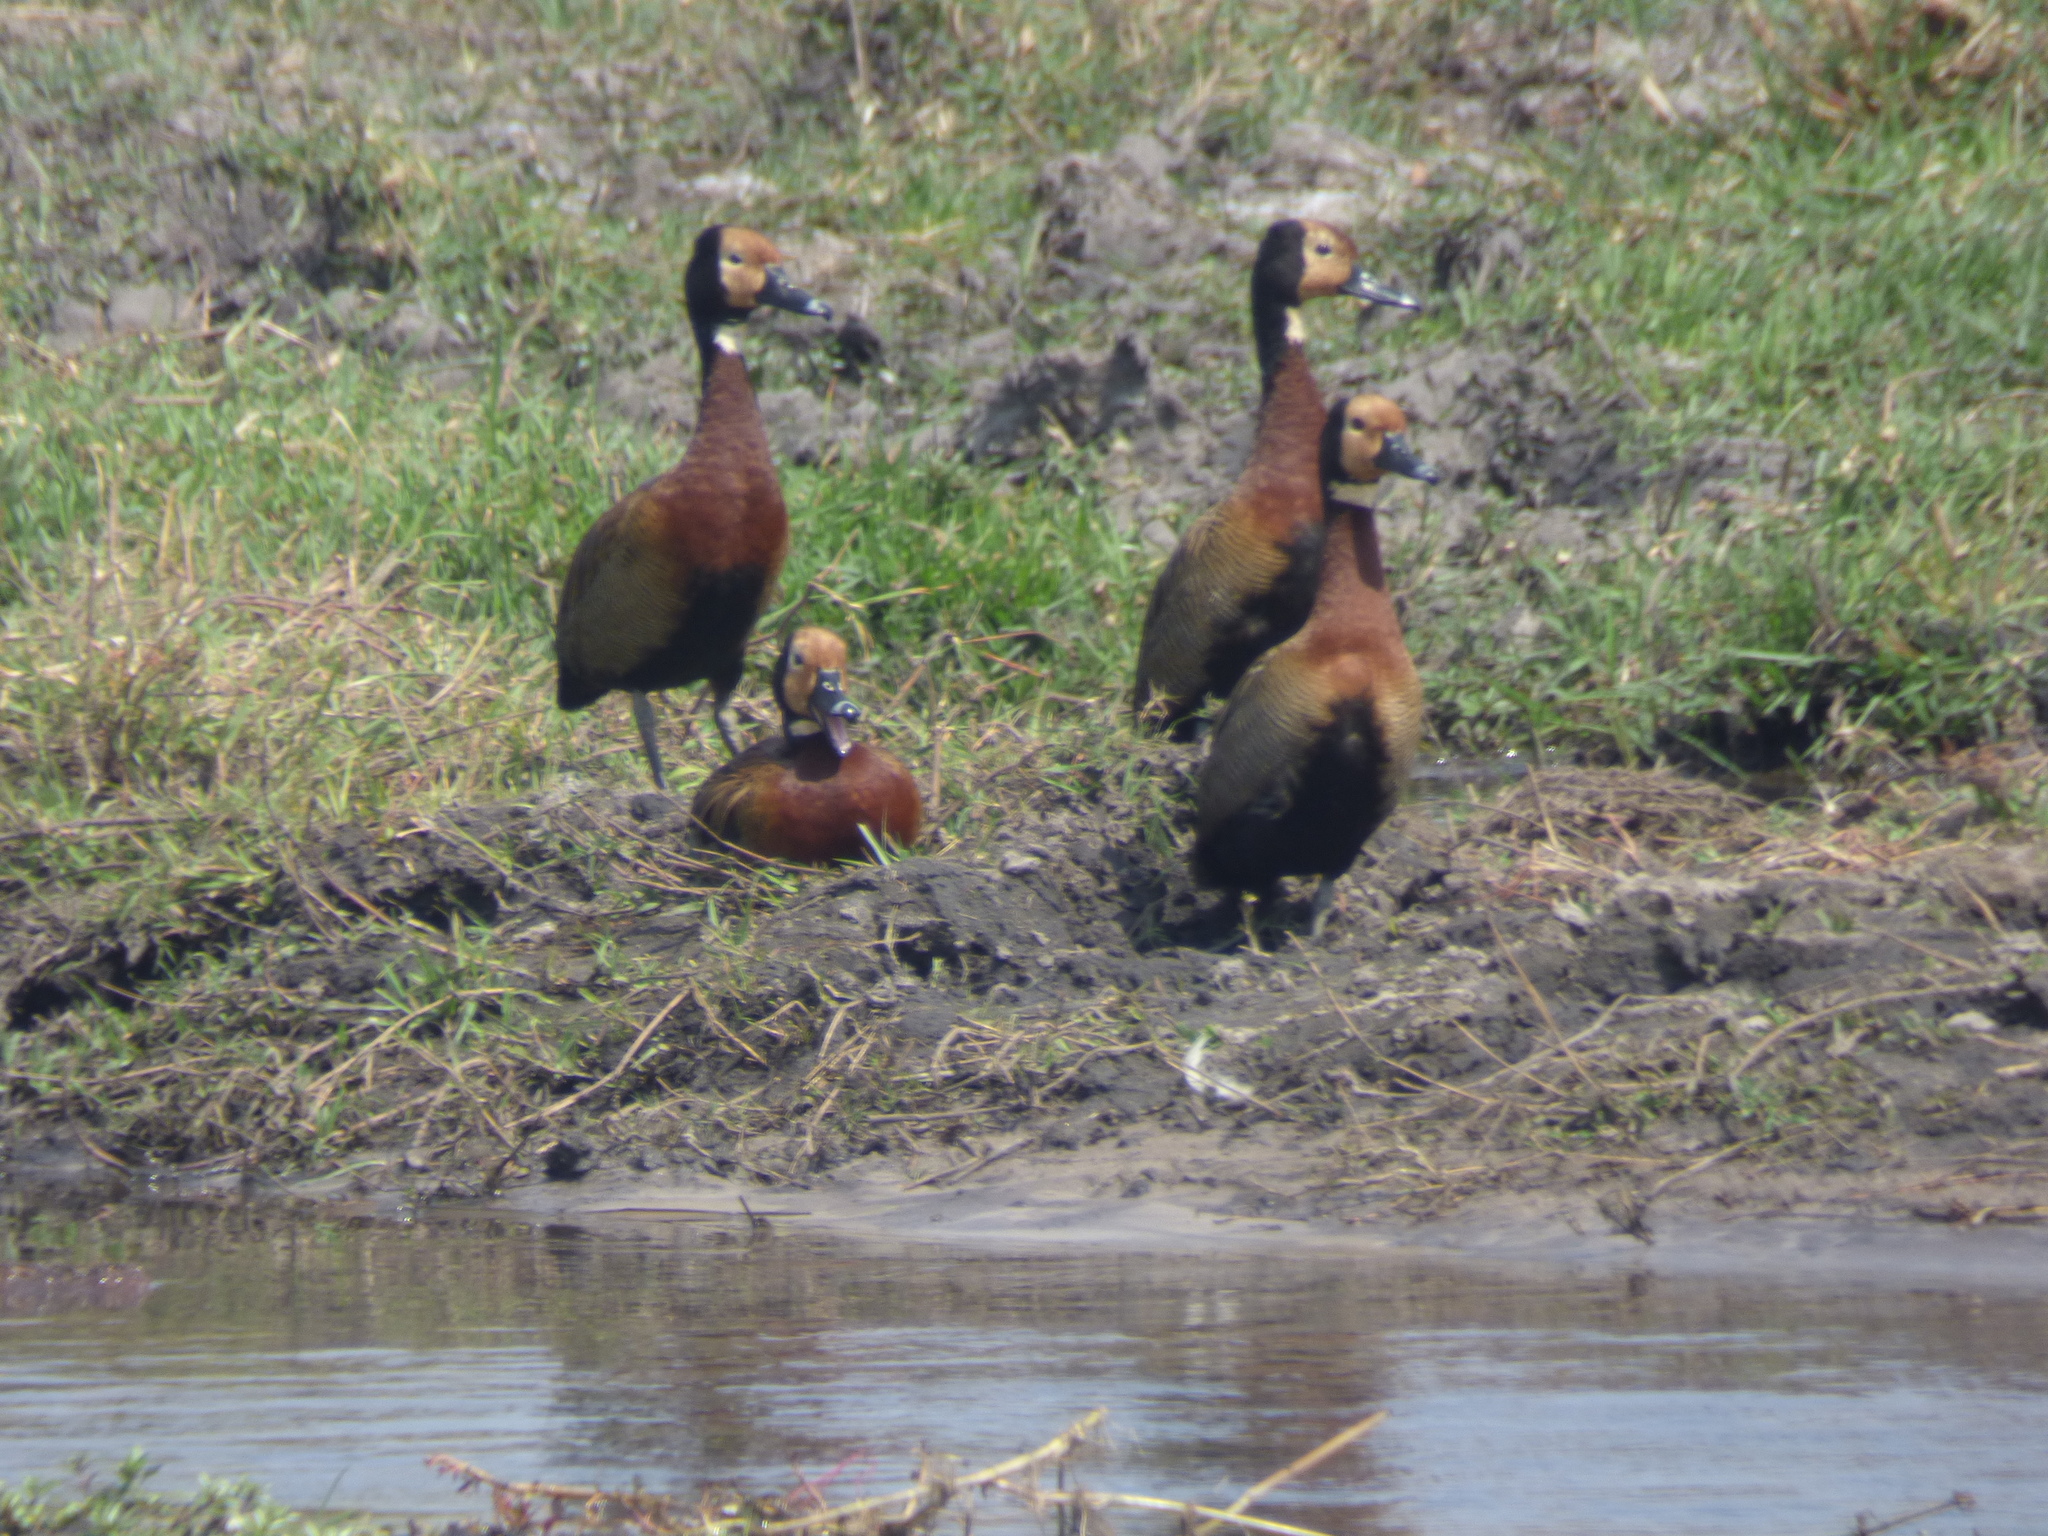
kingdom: Animalia
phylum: Chordata
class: Aves
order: Anseriformes
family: Anatidae
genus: Dendrocygna
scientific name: Dendrocygna viduata
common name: White-faced whistling duck
